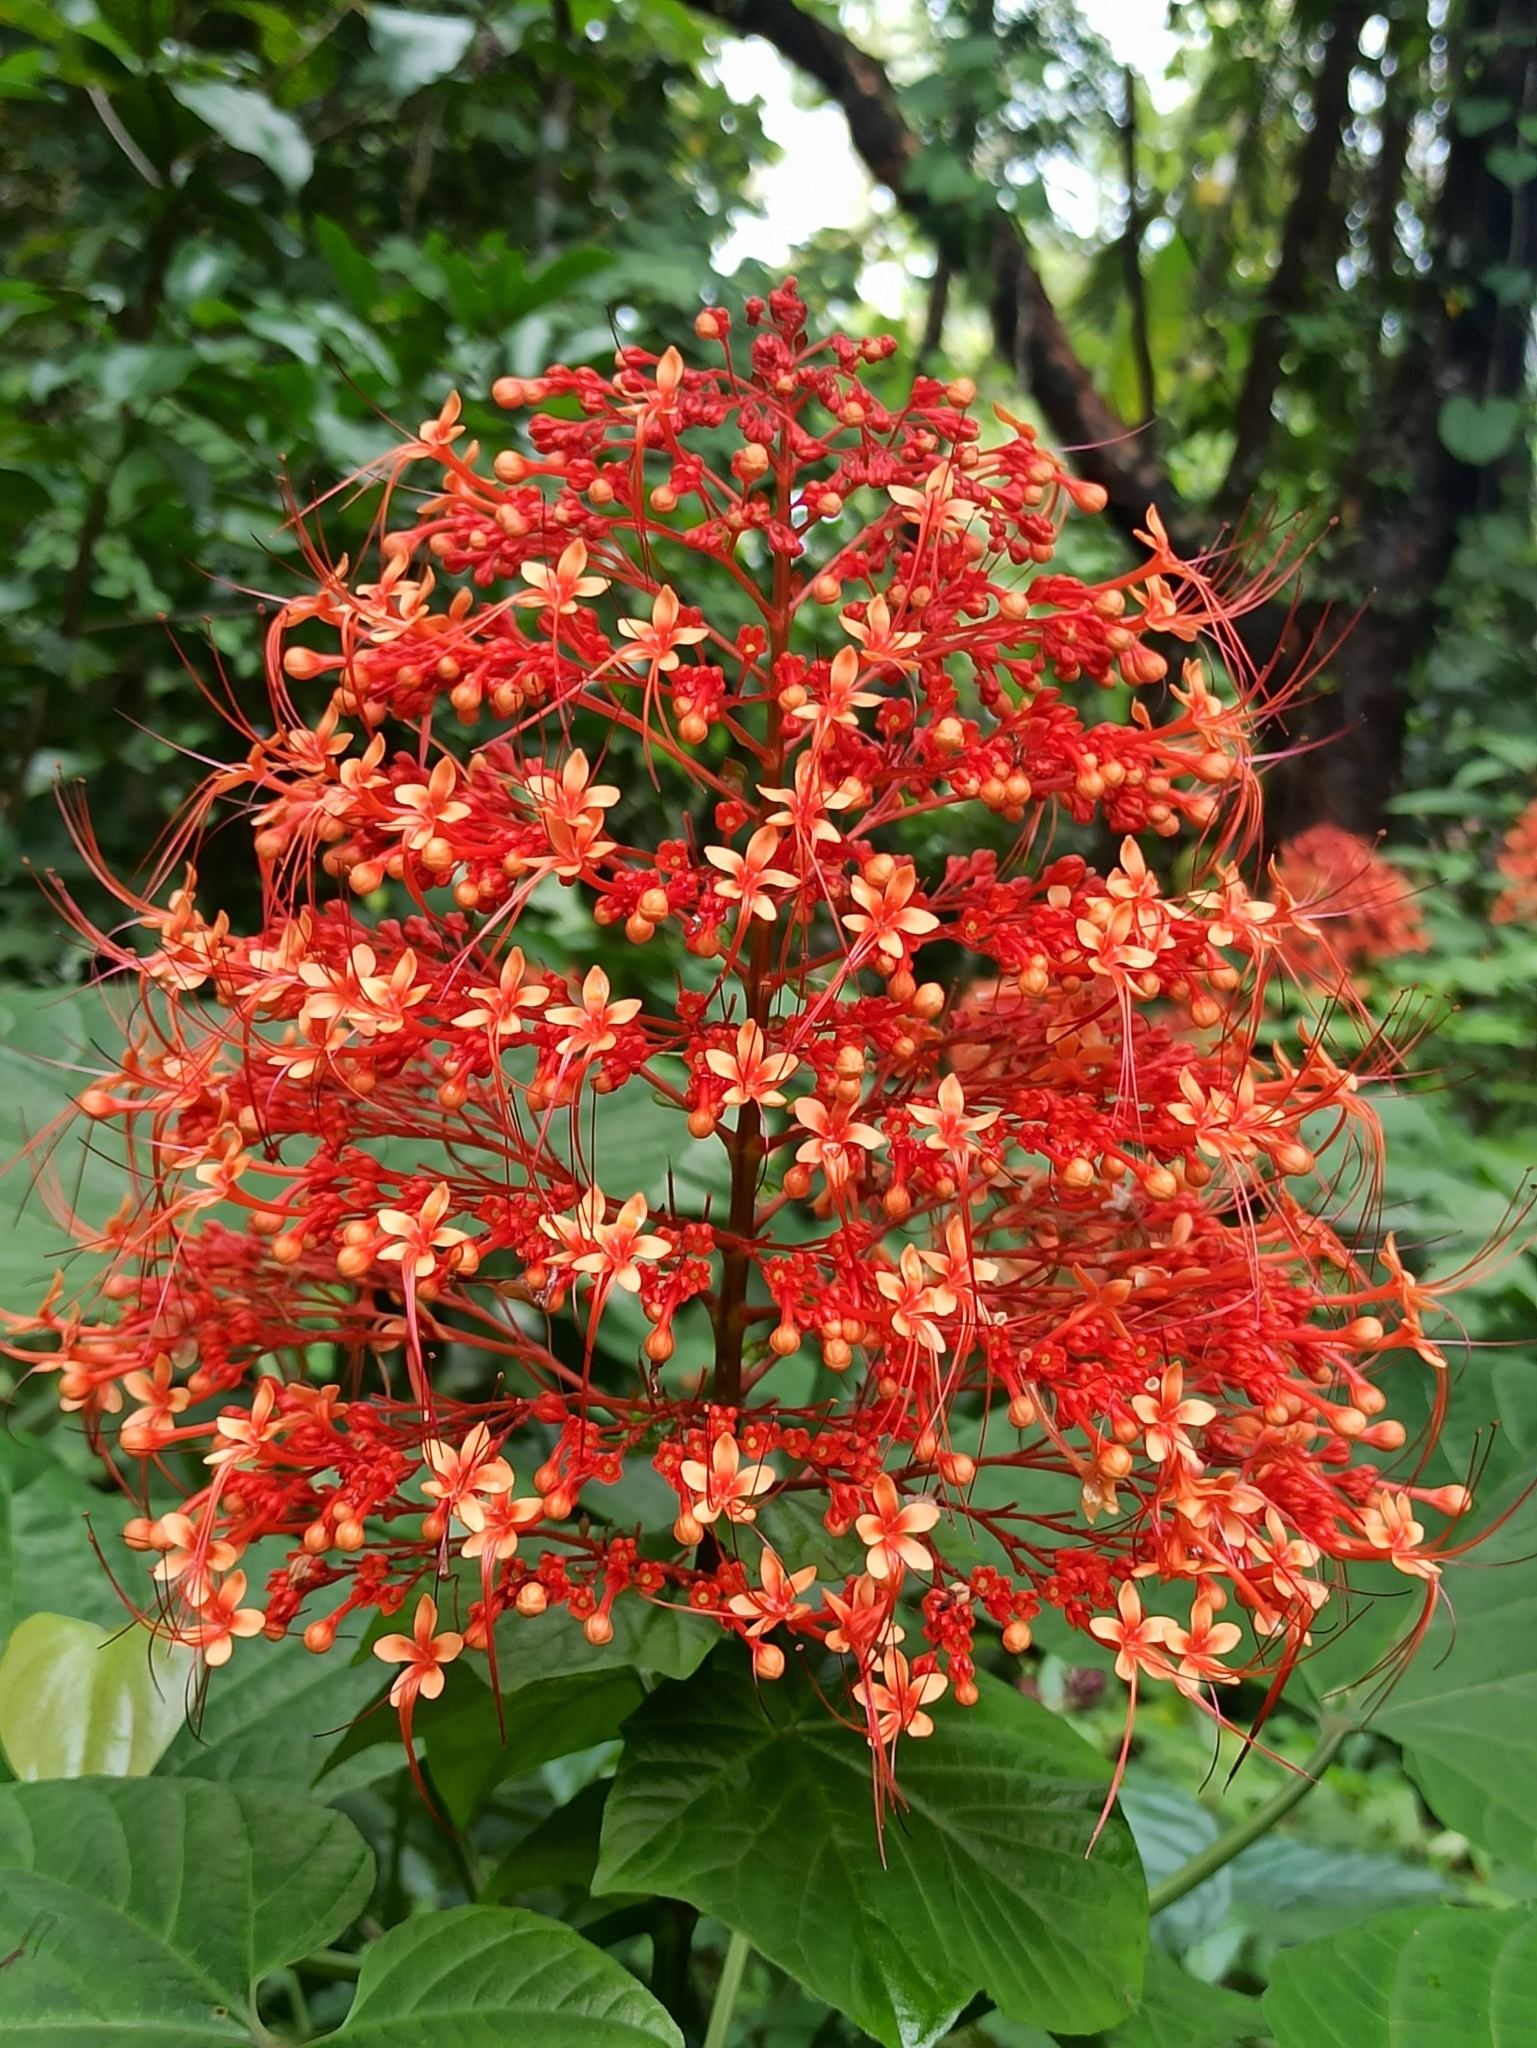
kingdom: Plantae
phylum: Tracheophyta
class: Magnoliopsida
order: Lamiales
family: Lamiaceae
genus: Clerodendrum
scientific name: Clerodendrum paniculatum
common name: Pagoda-flower
